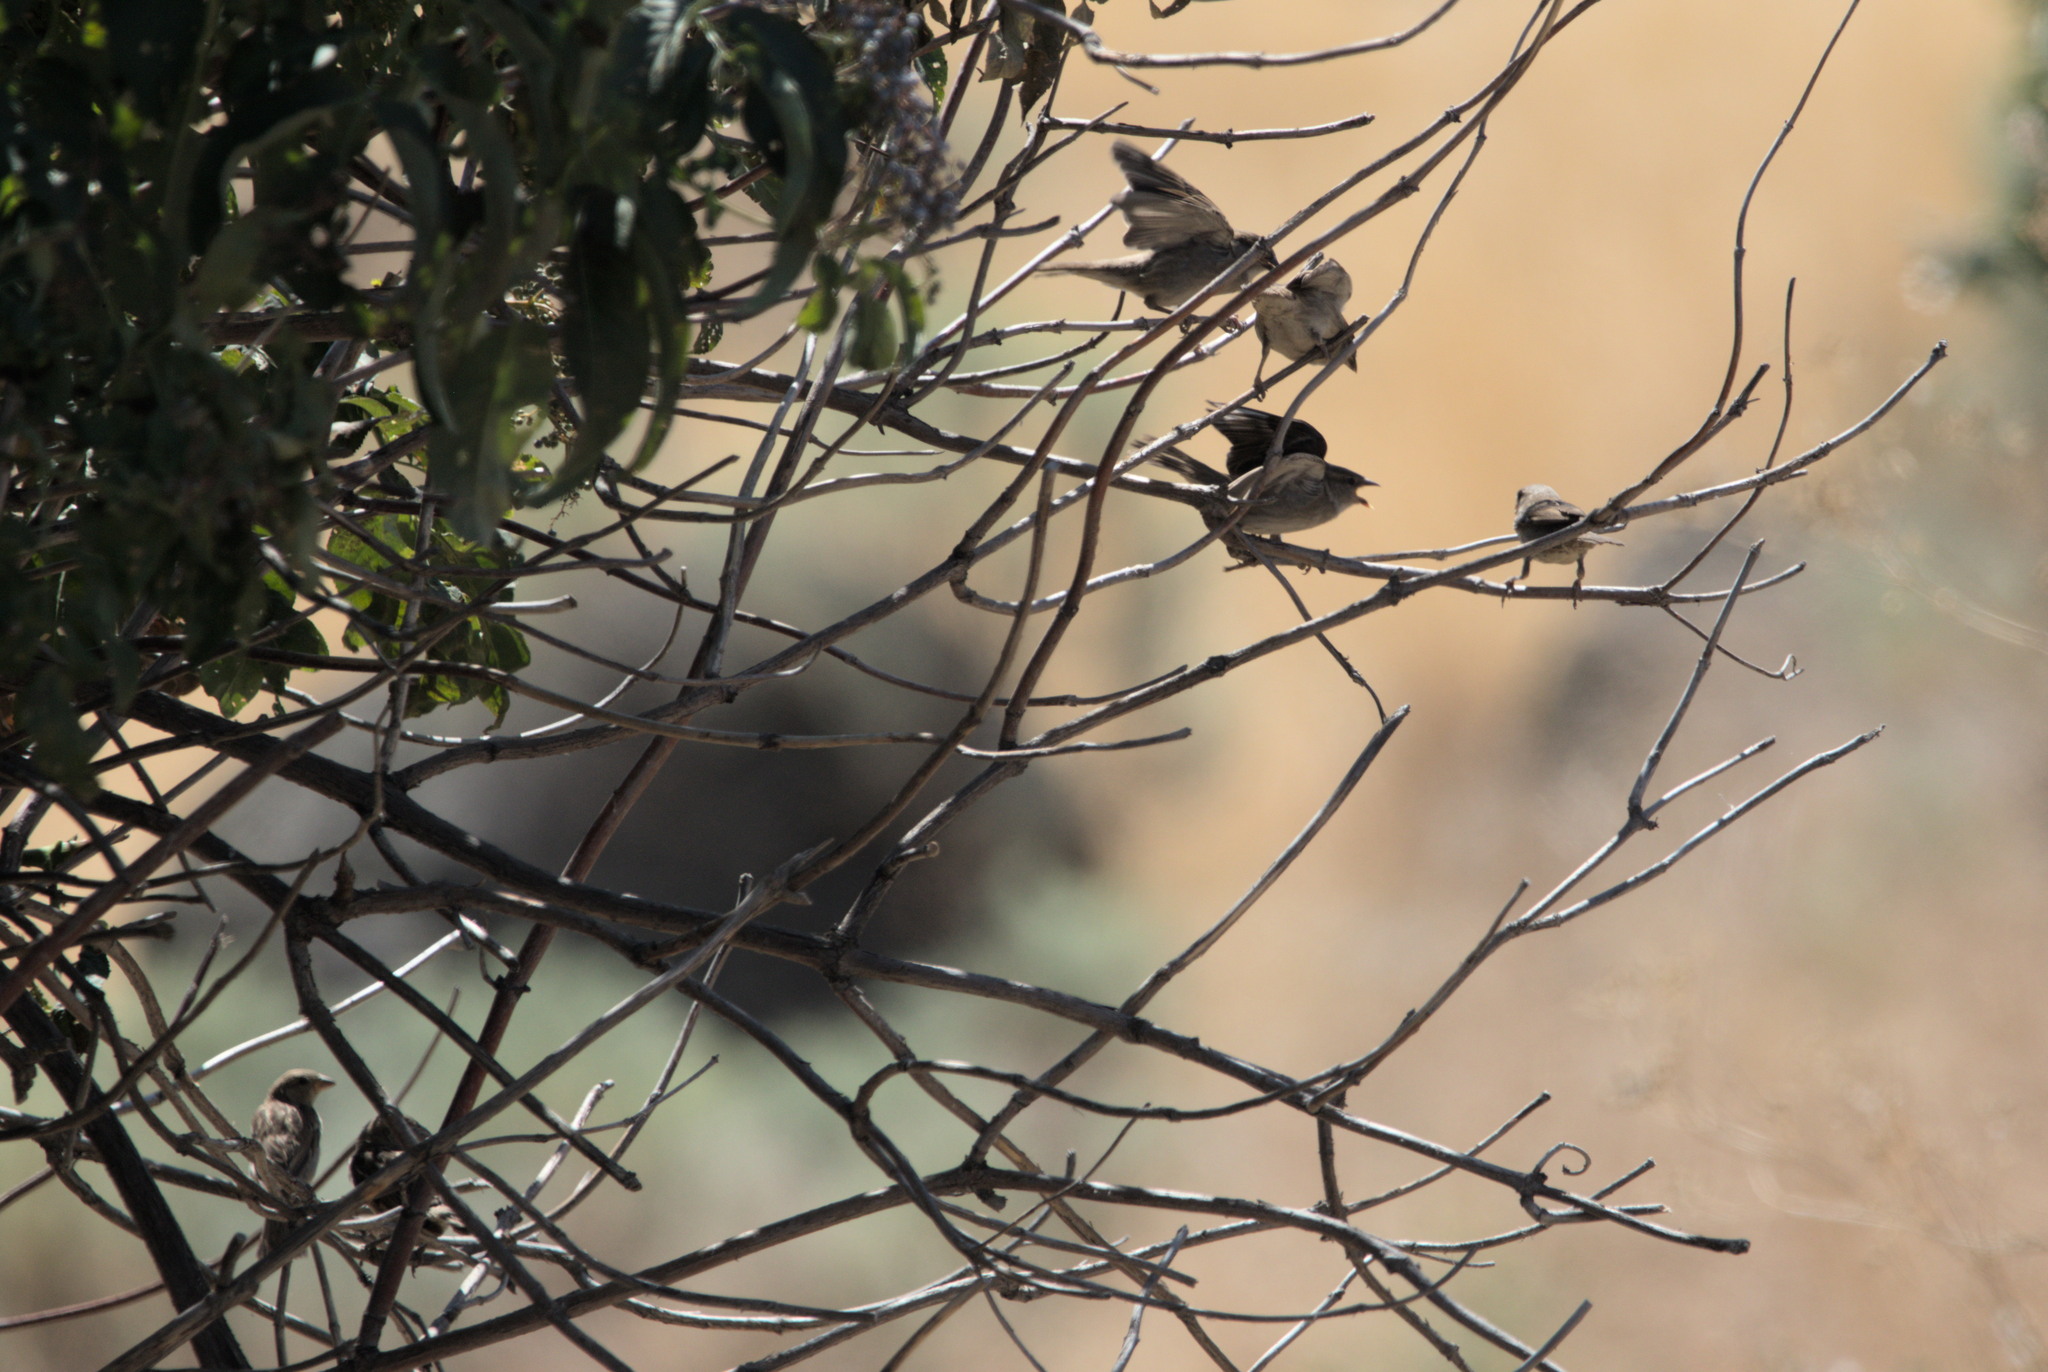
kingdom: Animalia
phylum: Chordata
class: Aves
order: Passeriformes
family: Passeridae
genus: Passer
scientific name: Passer domesticus
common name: House sparrow
